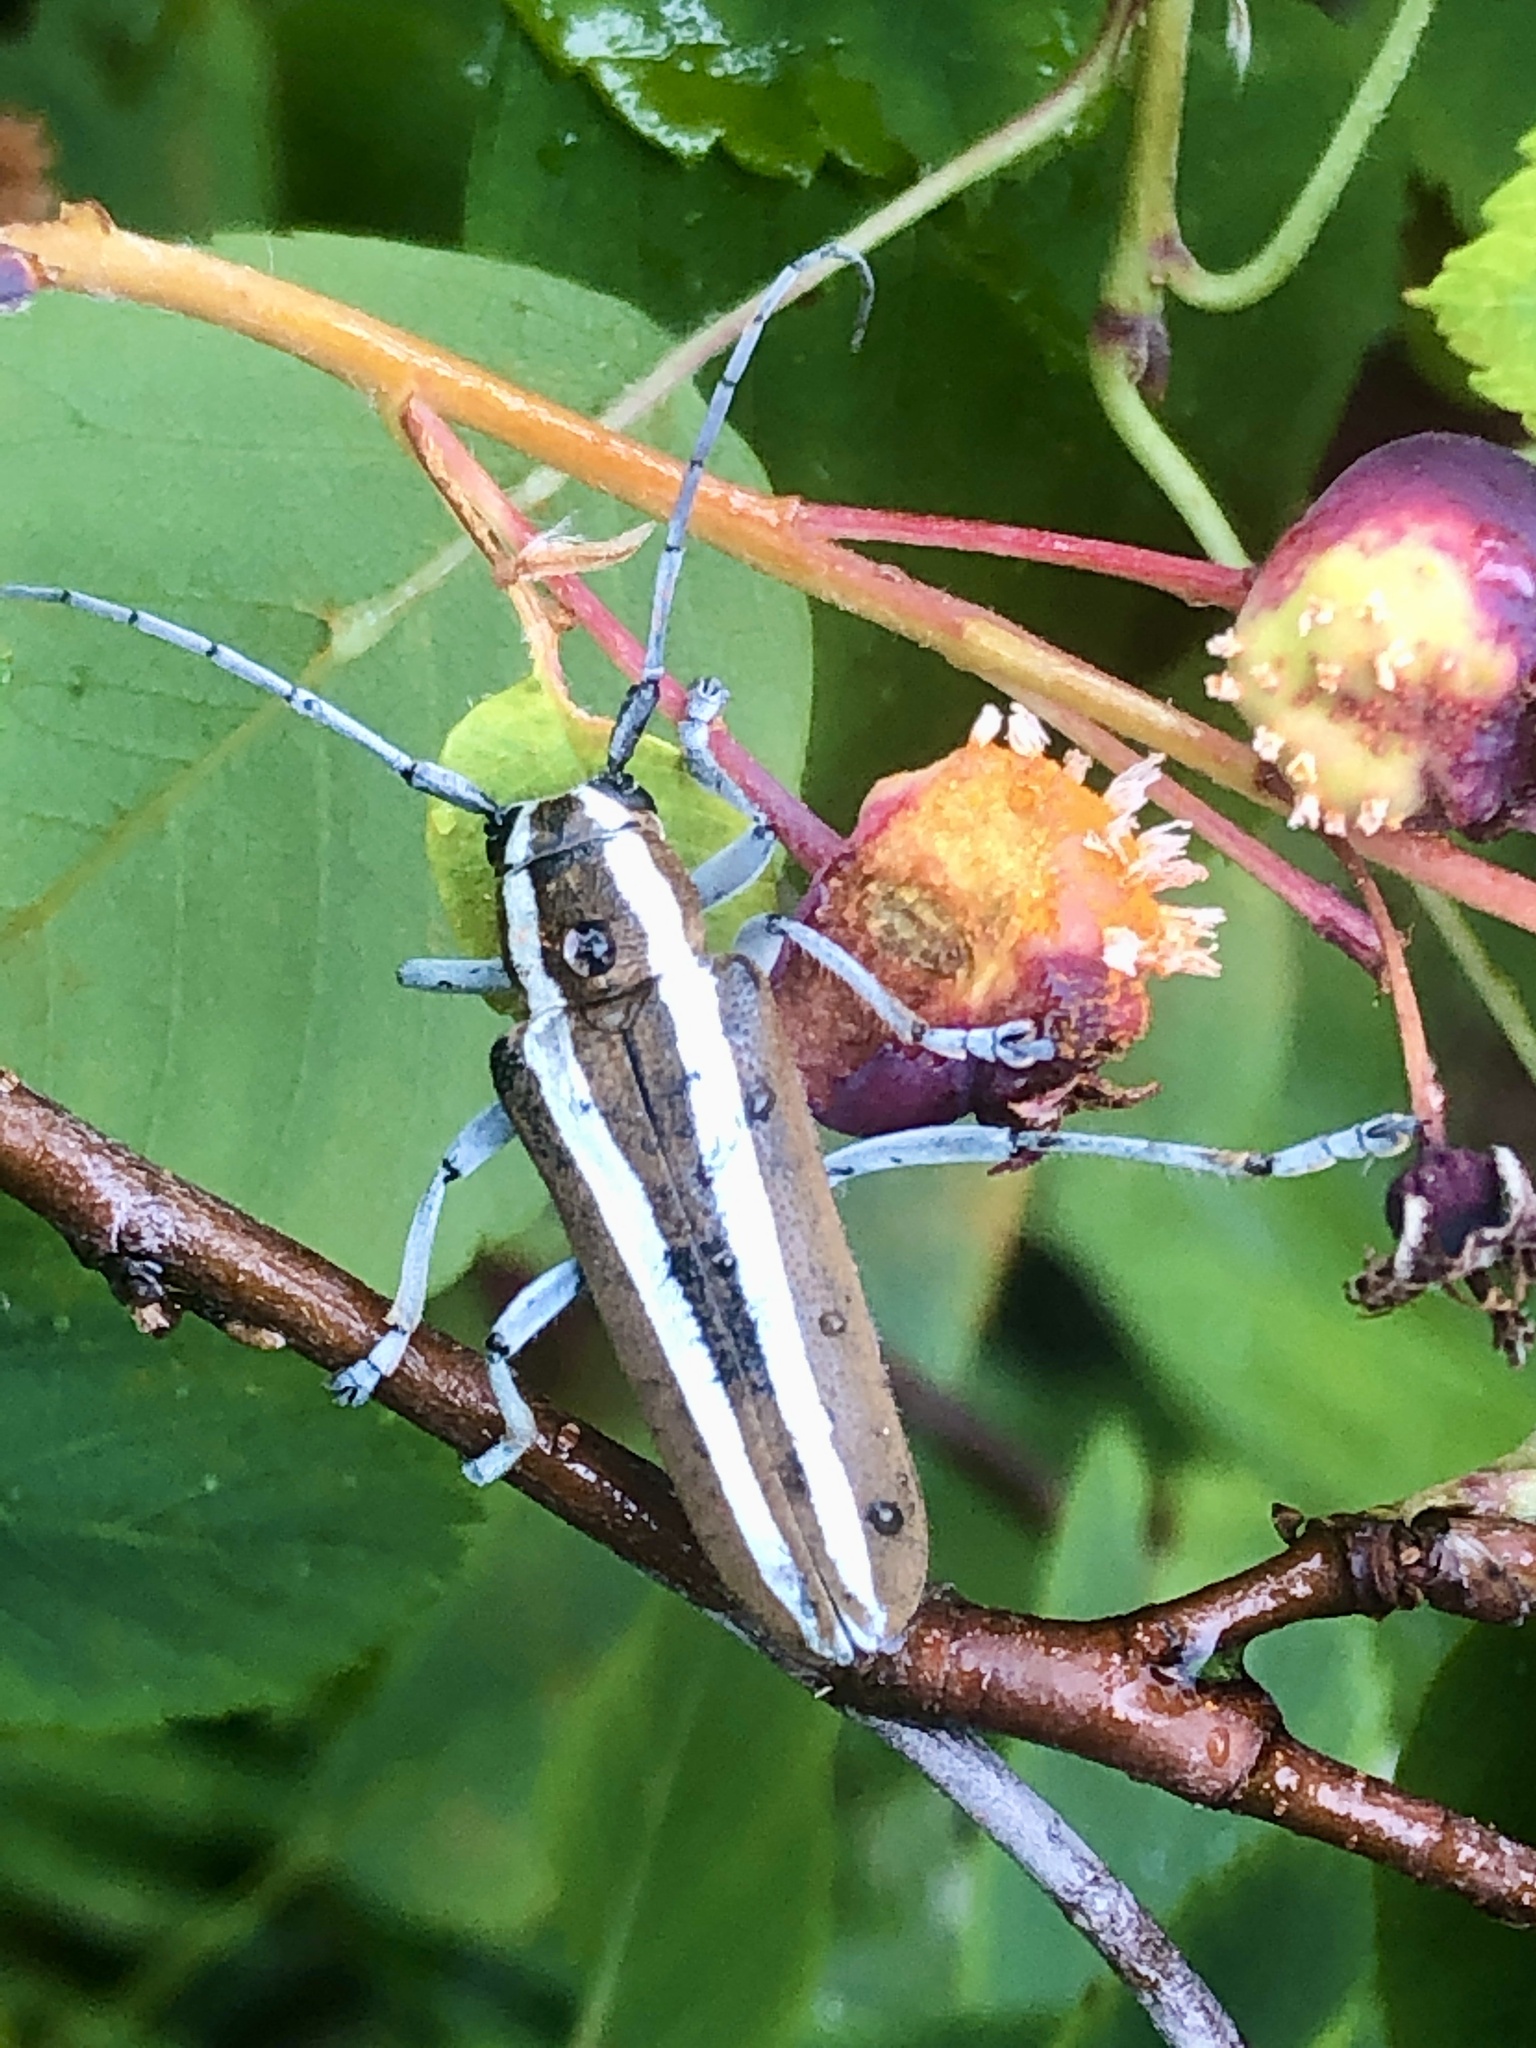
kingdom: Animalia
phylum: Arthropoda
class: Insecta
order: Coleoptera
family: Cerambycidae
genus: Saperda
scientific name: Saperda candida
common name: Round-headed borer
